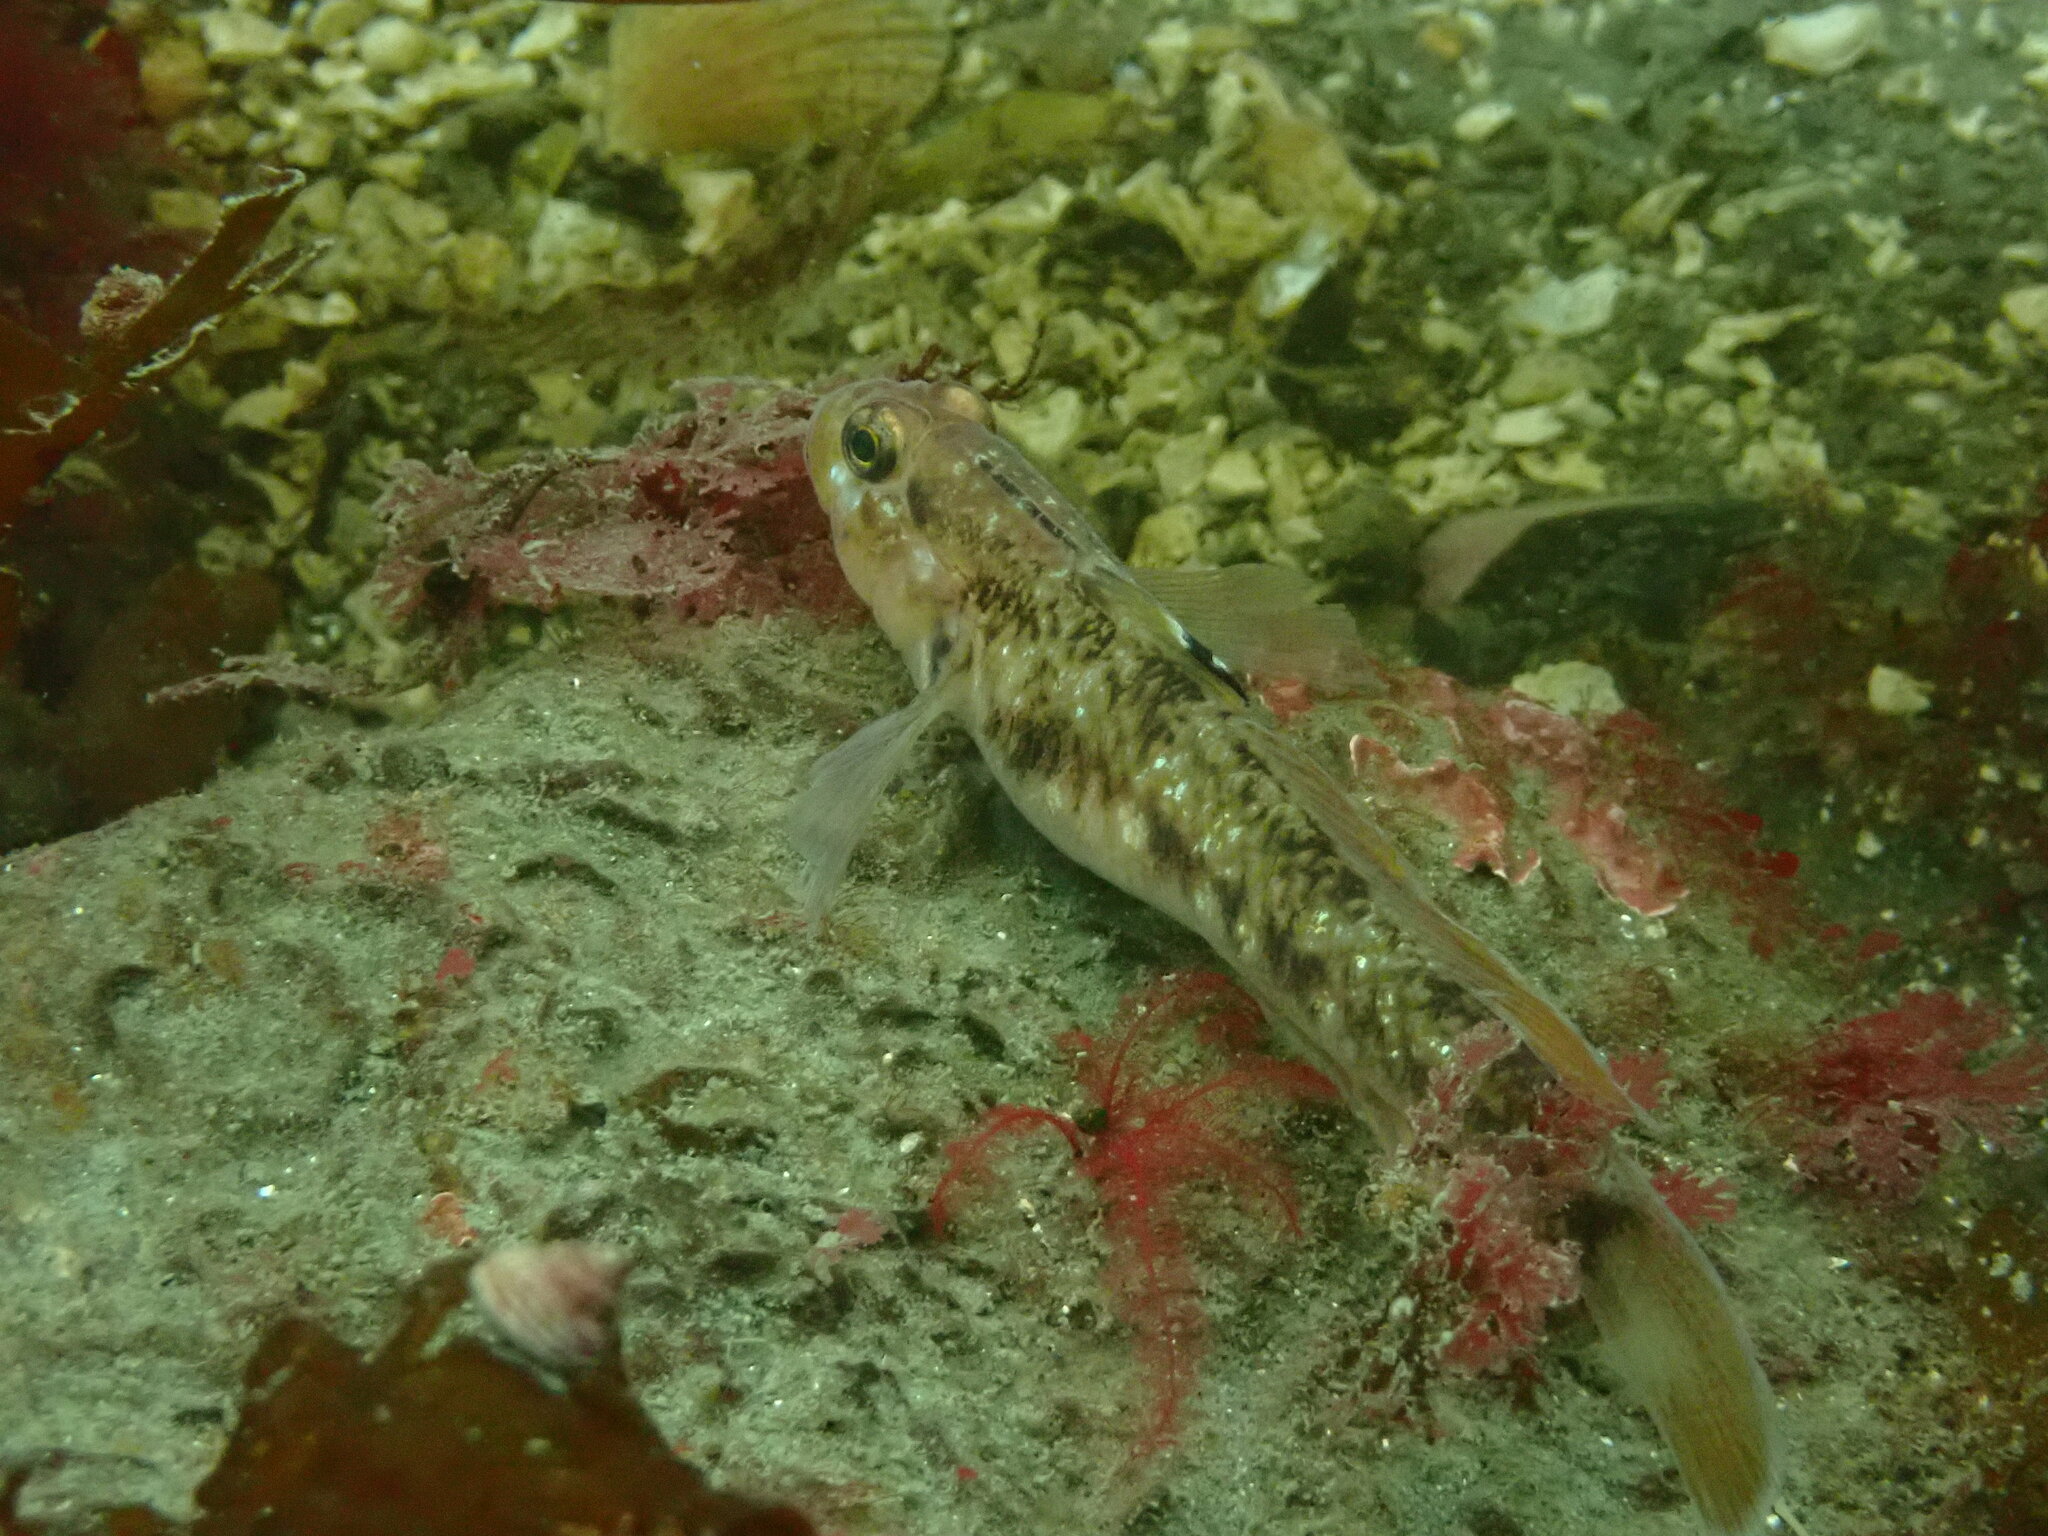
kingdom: Animalia
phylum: Chordata
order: Perciformes
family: Gobiidae
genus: Rhinogobiops
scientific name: Rhinogobiops nicholsii
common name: Blackeye goby
